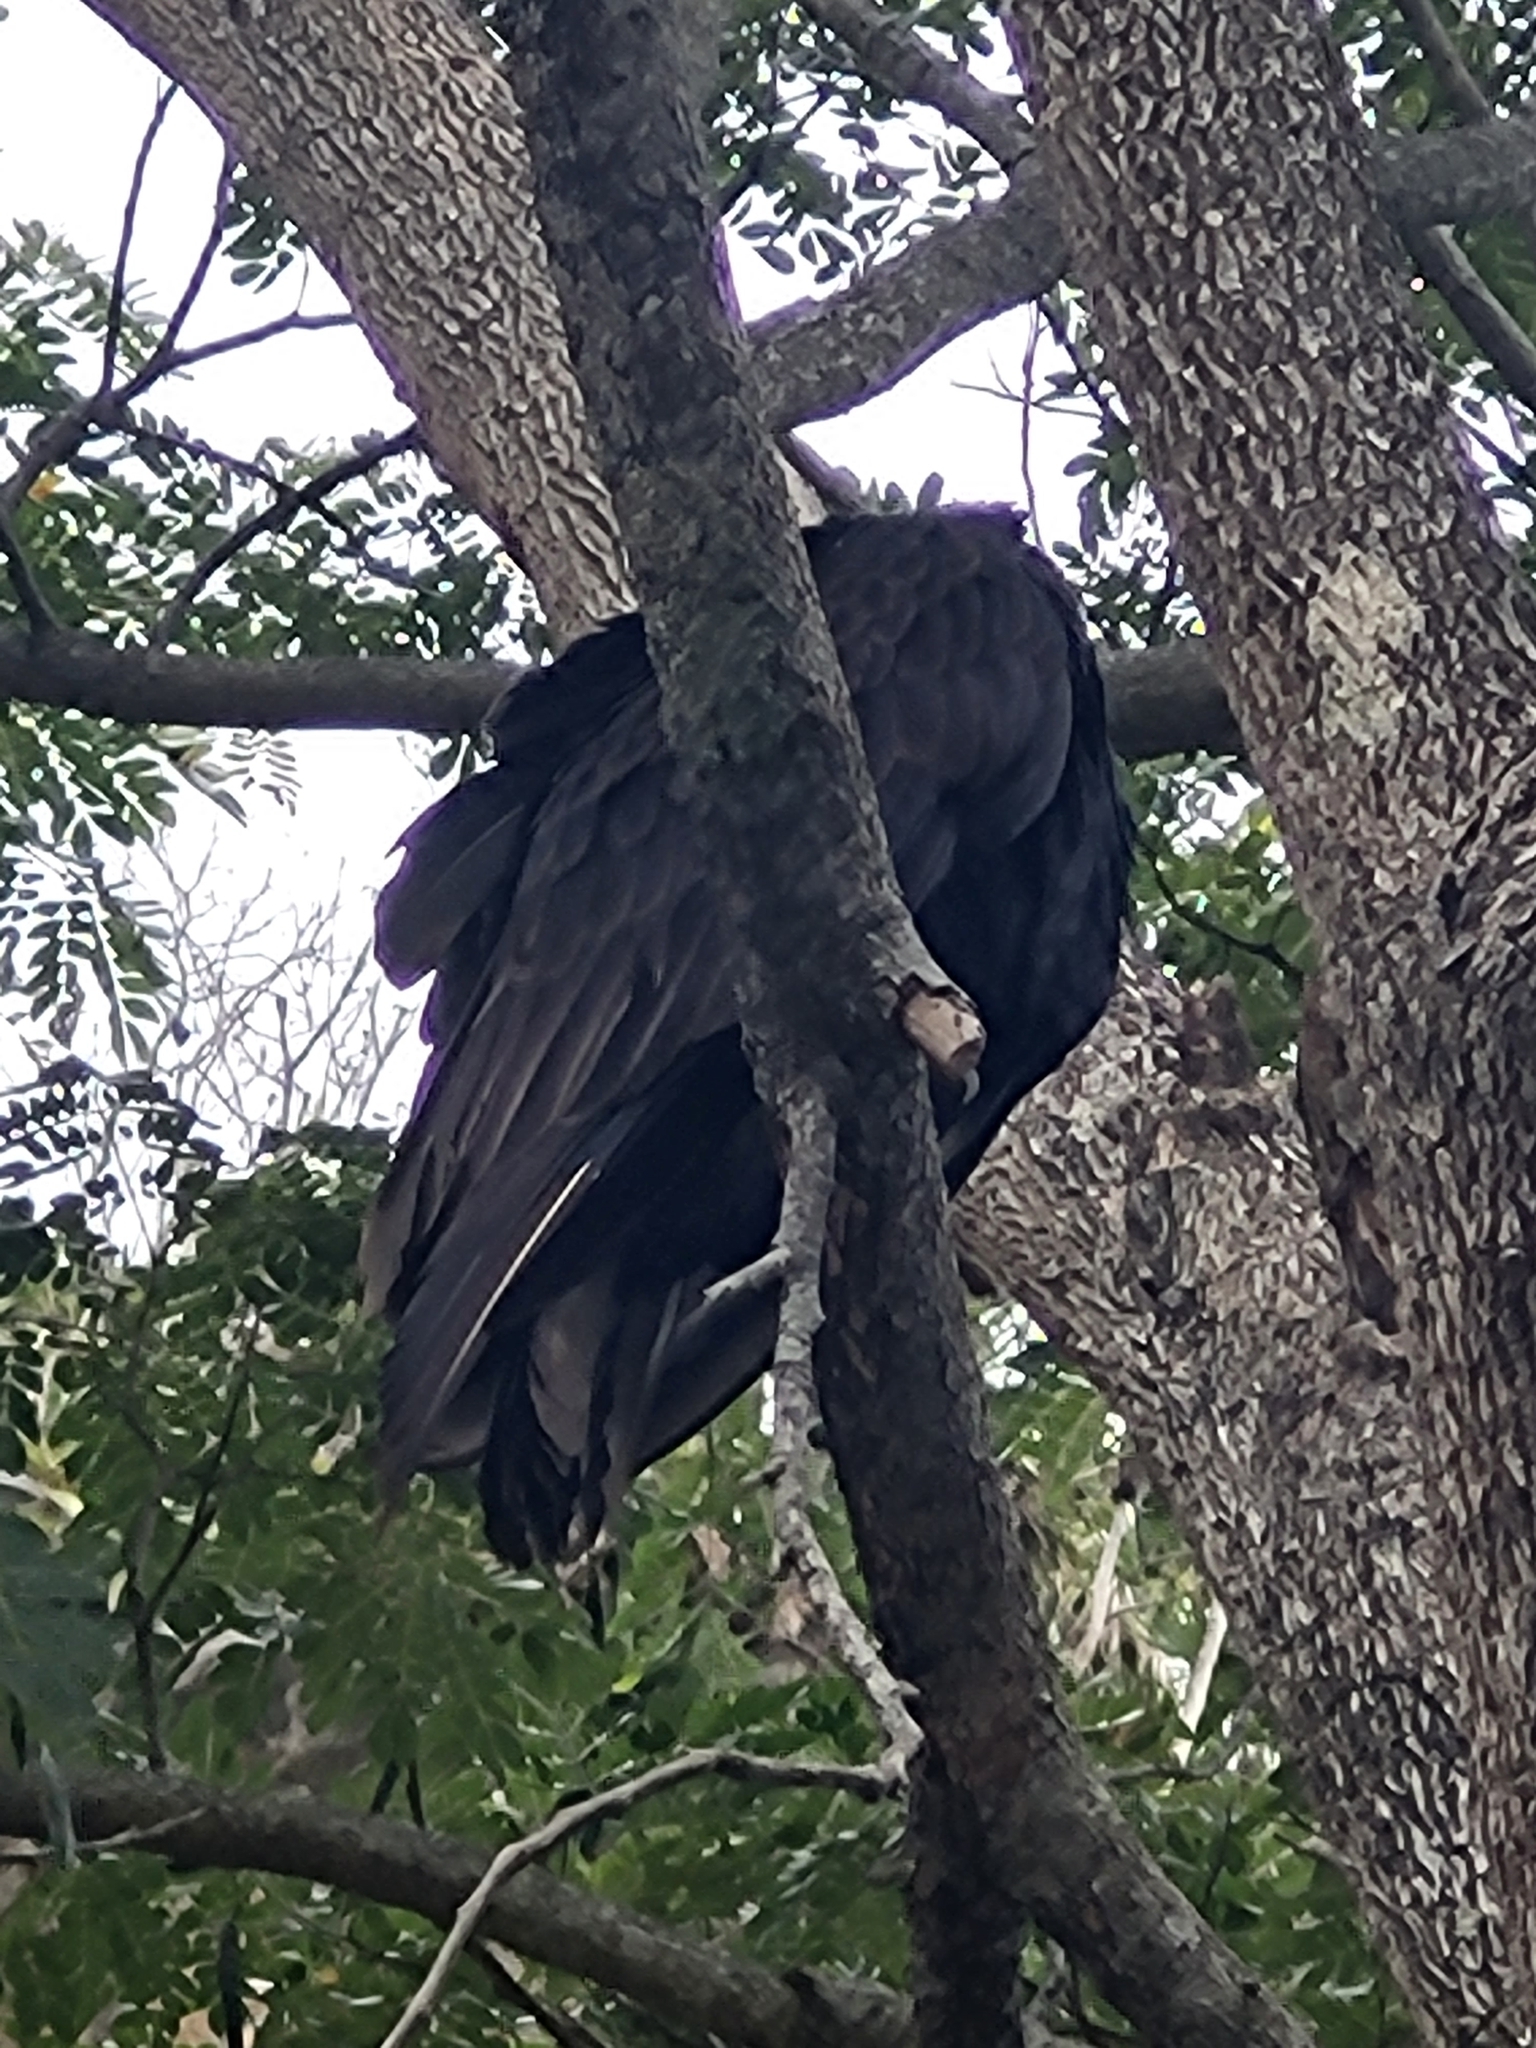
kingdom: Animalia
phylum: Chordata
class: Aves
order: Accipitriformes
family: Cathartidae
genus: Cathartes
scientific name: Cathartes aura
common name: Turkey vulture
